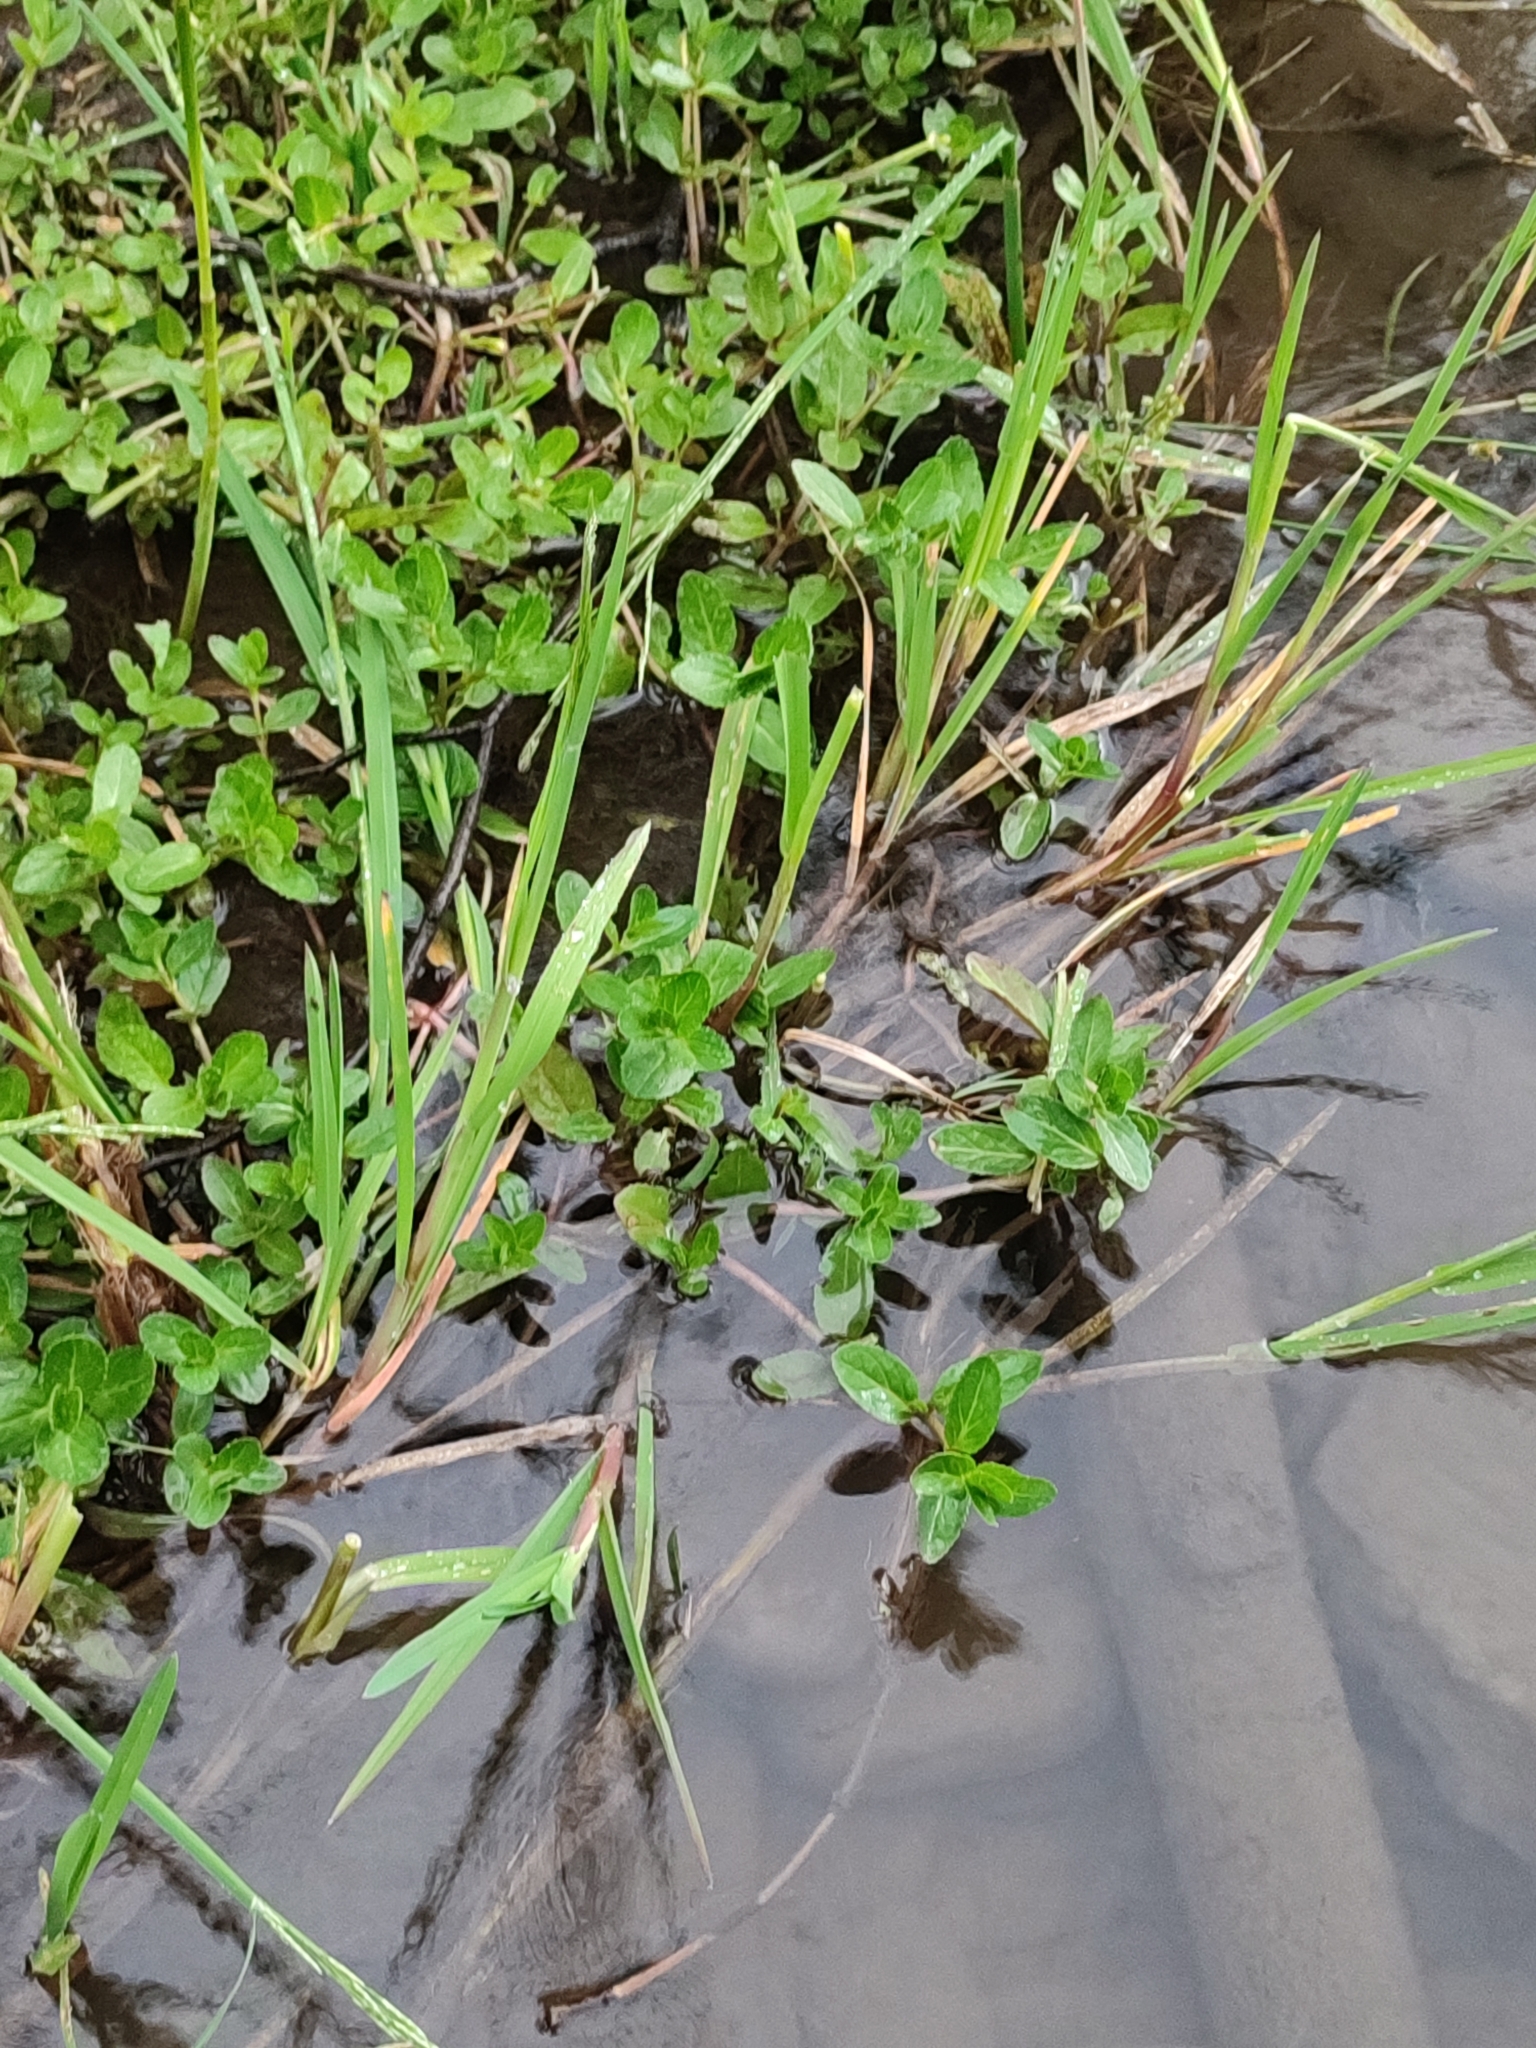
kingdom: Plantae
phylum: Tracheophyta
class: Magnoliopsida
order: Lamiales
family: Plantaginaceae
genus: Veronica
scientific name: Veronica beccabunga
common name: Brooklime
